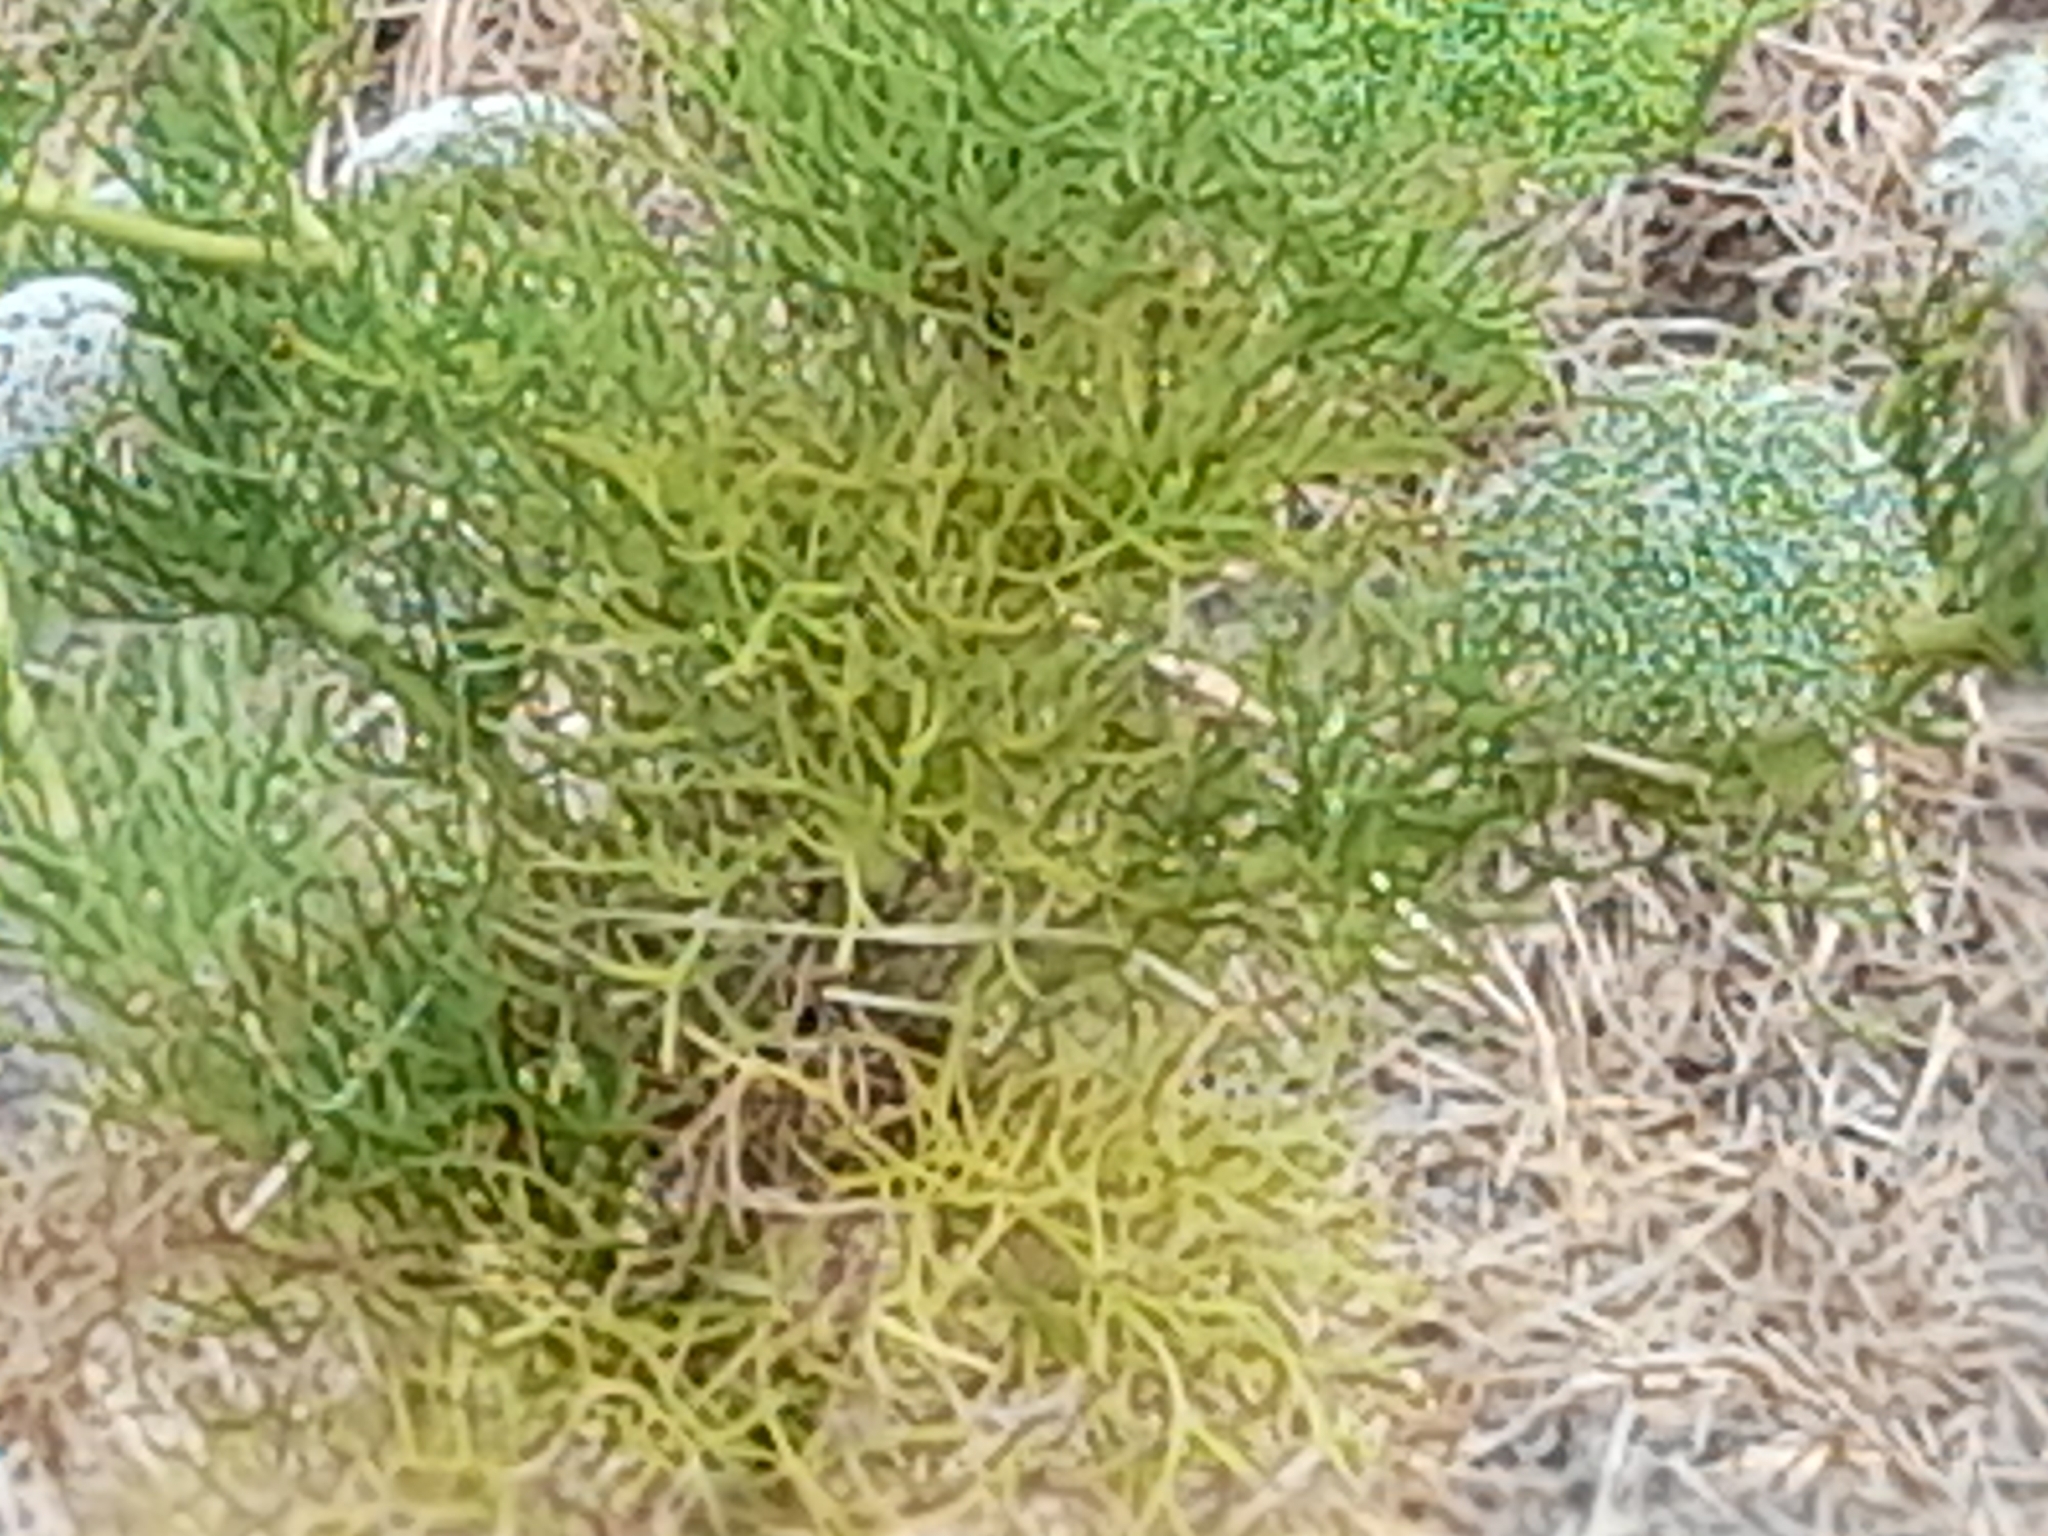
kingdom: Plantae
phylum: Tracheophyta
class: Magnoliopsida
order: Apiales
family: Apiaceae
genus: Visnaga
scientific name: Visnaga daucoides
